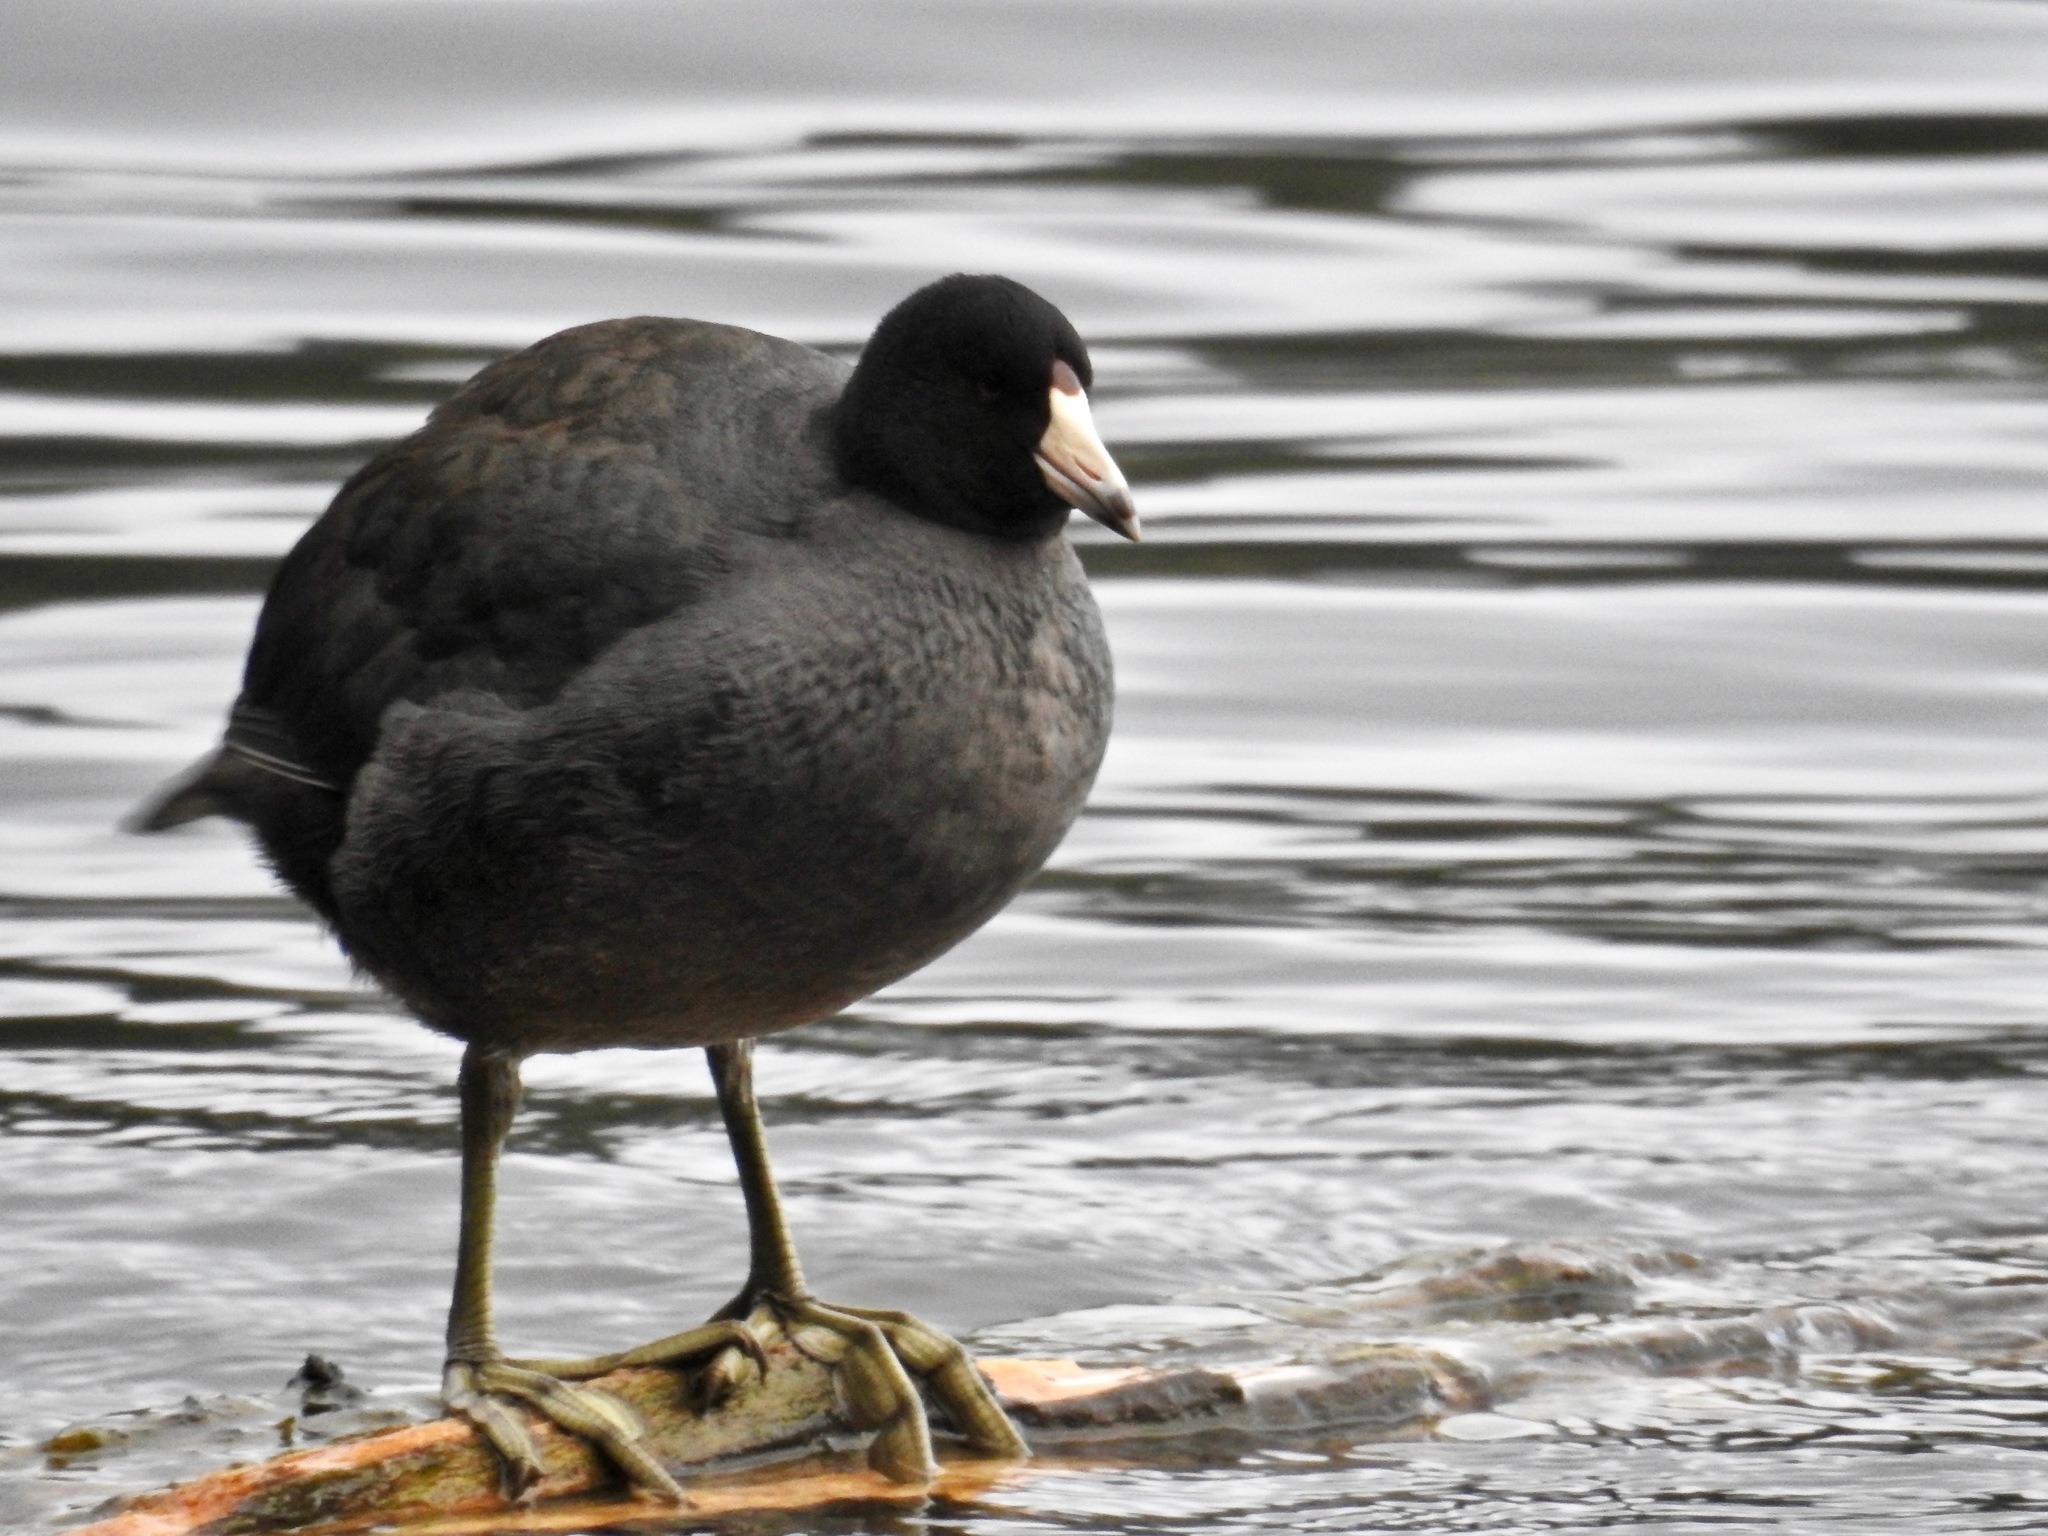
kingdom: Animalia
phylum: Chordata
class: Aves
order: Gruiformes
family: Rallidae
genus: Fulica
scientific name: Fulica americana
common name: American coot
